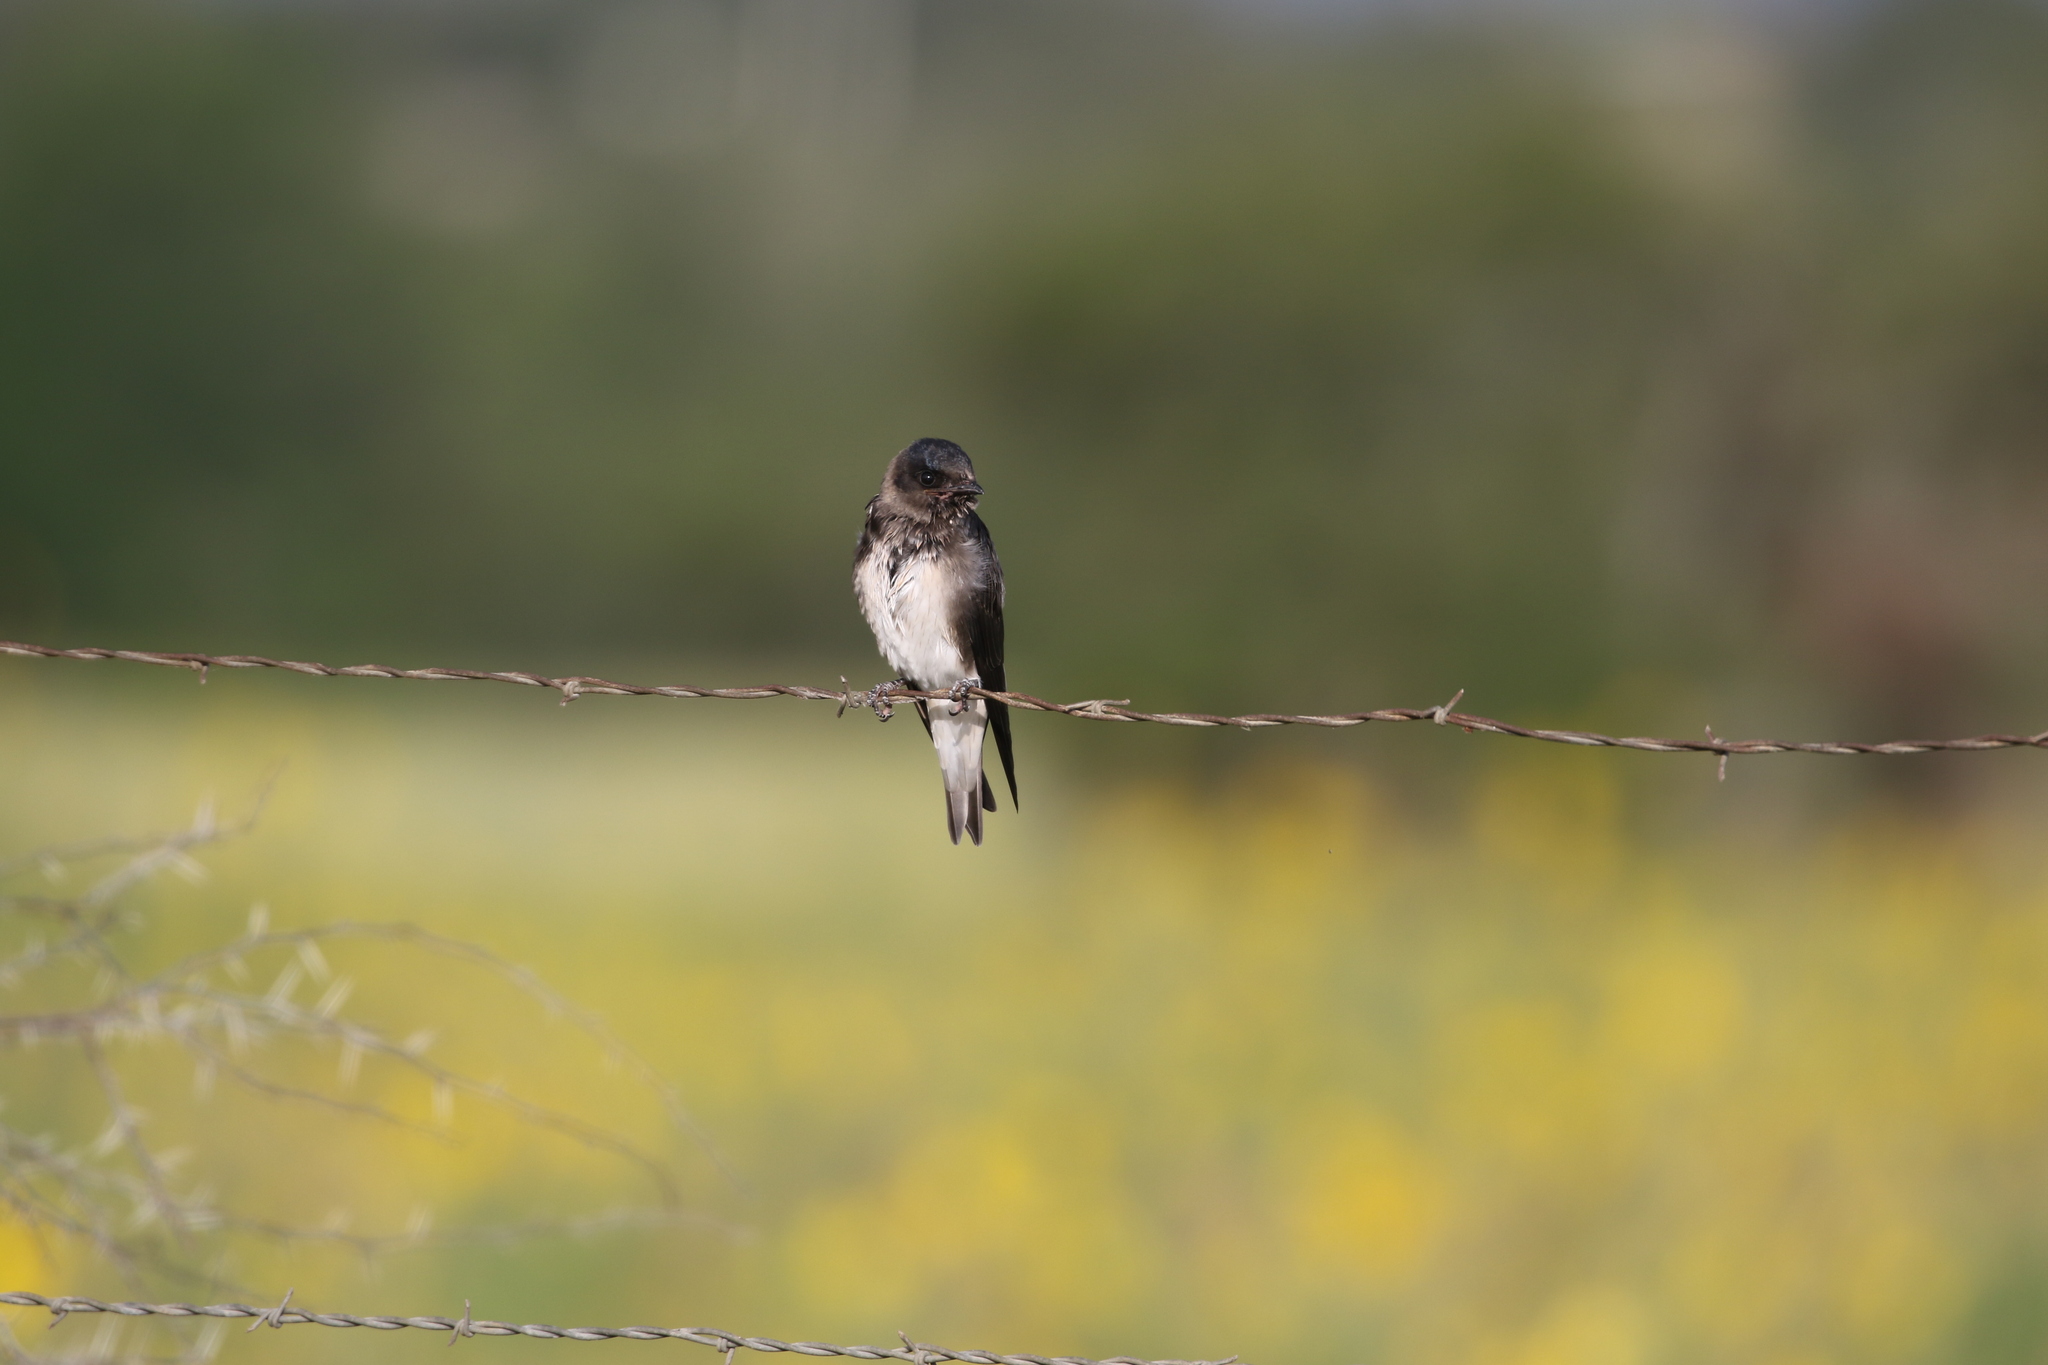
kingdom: Animalia
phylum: Chordata
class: Aves
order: Passeriformes
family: Hirundinidae
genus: Progne
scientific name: Progne subis
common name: Purple martin
